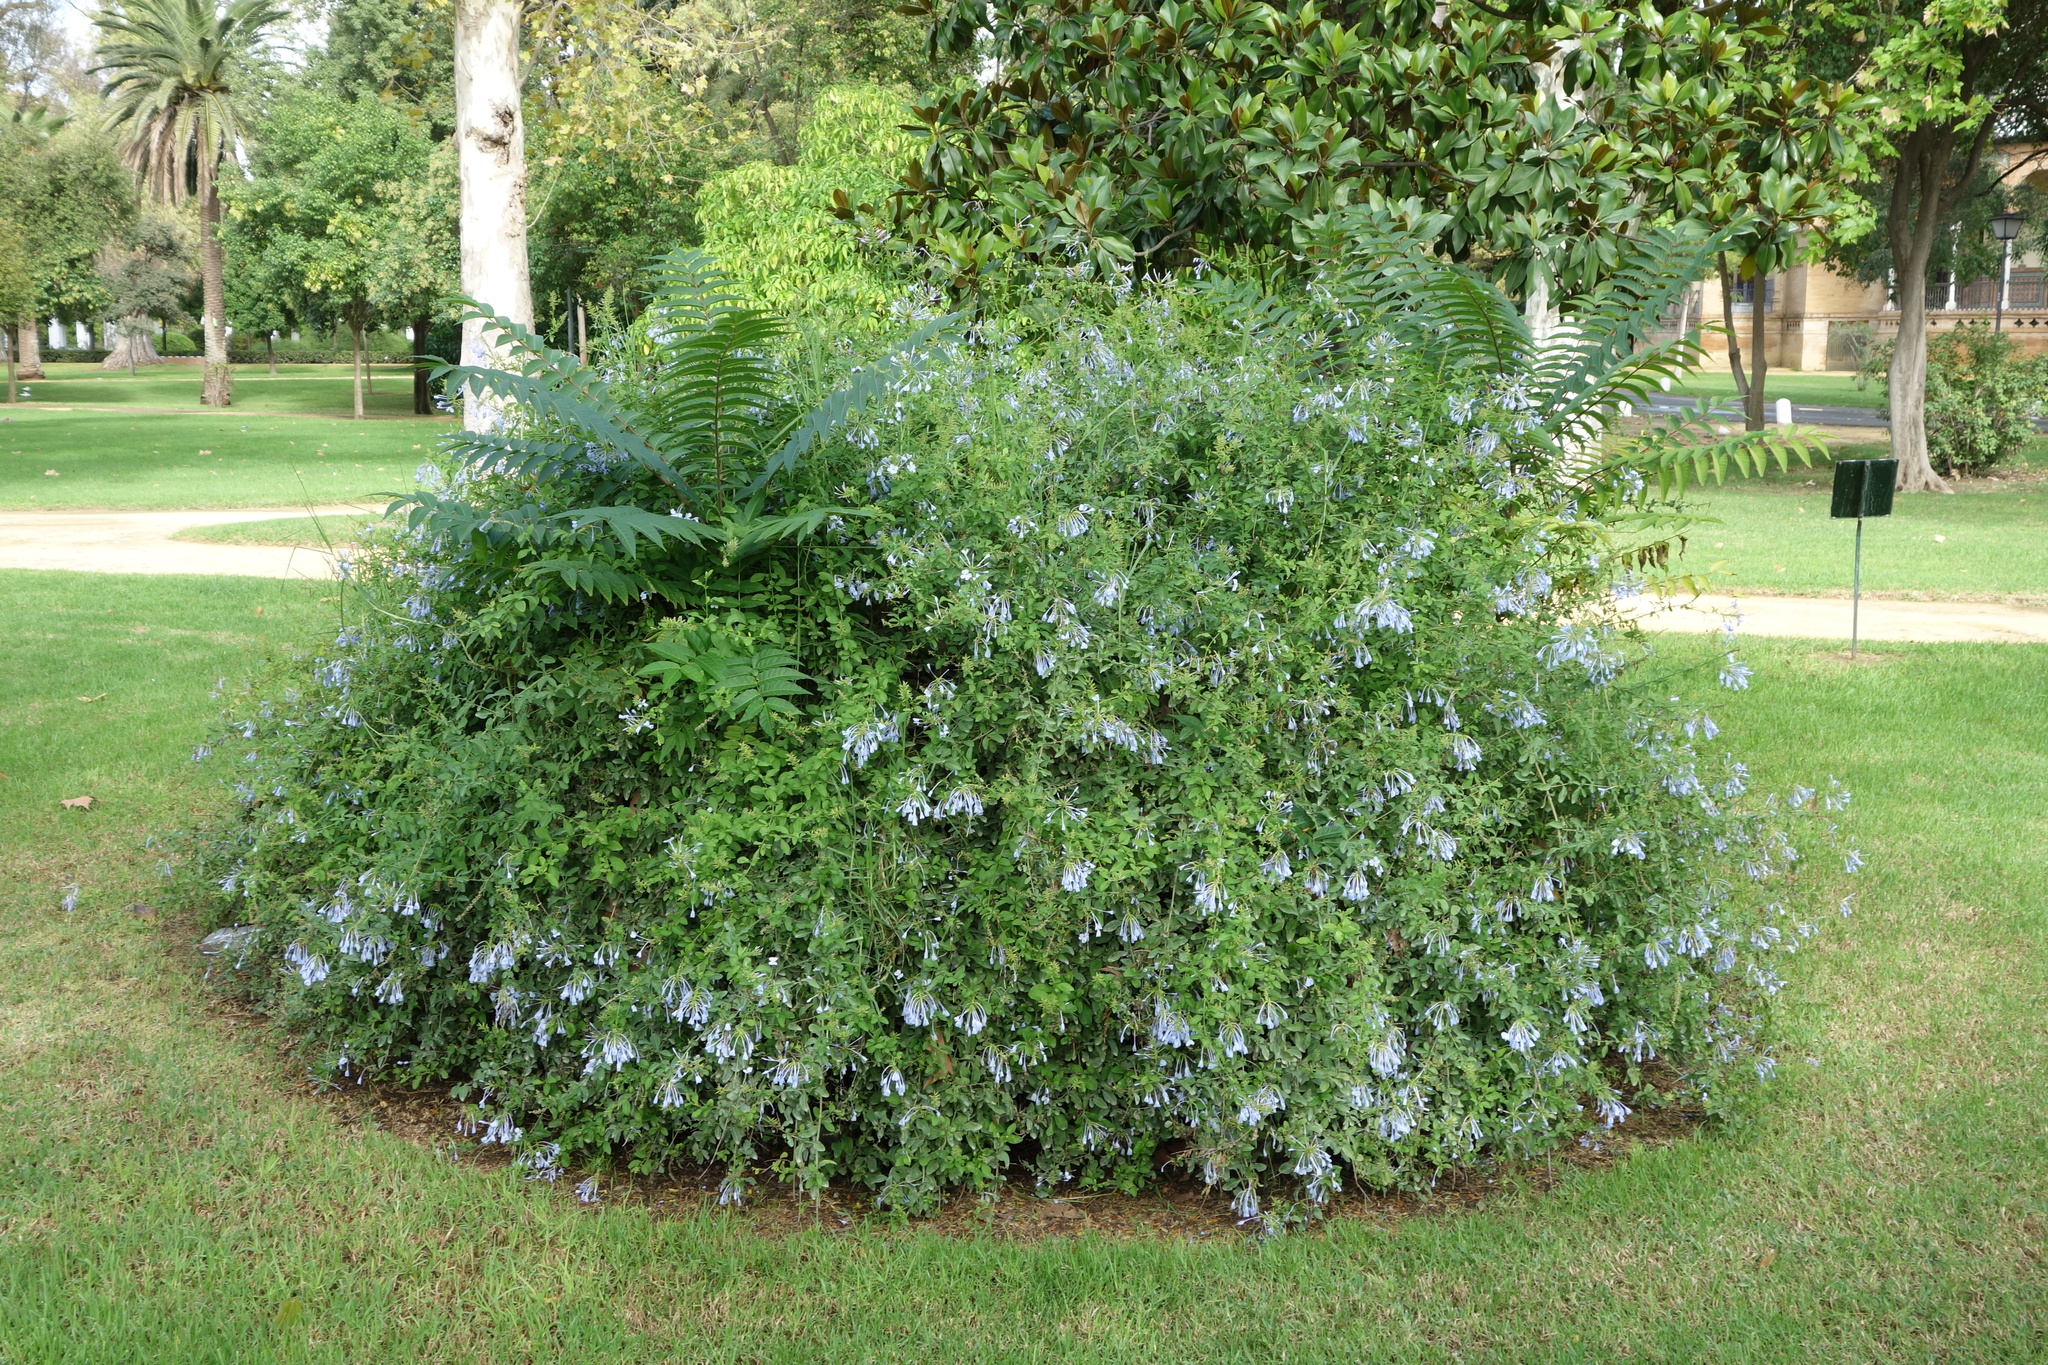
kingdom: Plantae
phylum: Tracheophyta
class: Magnoliopsida
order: Sapindales
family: Simaroubaceae
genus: Ailanthus
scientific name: Ailanthus altissima
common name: Tree-of-heaven
